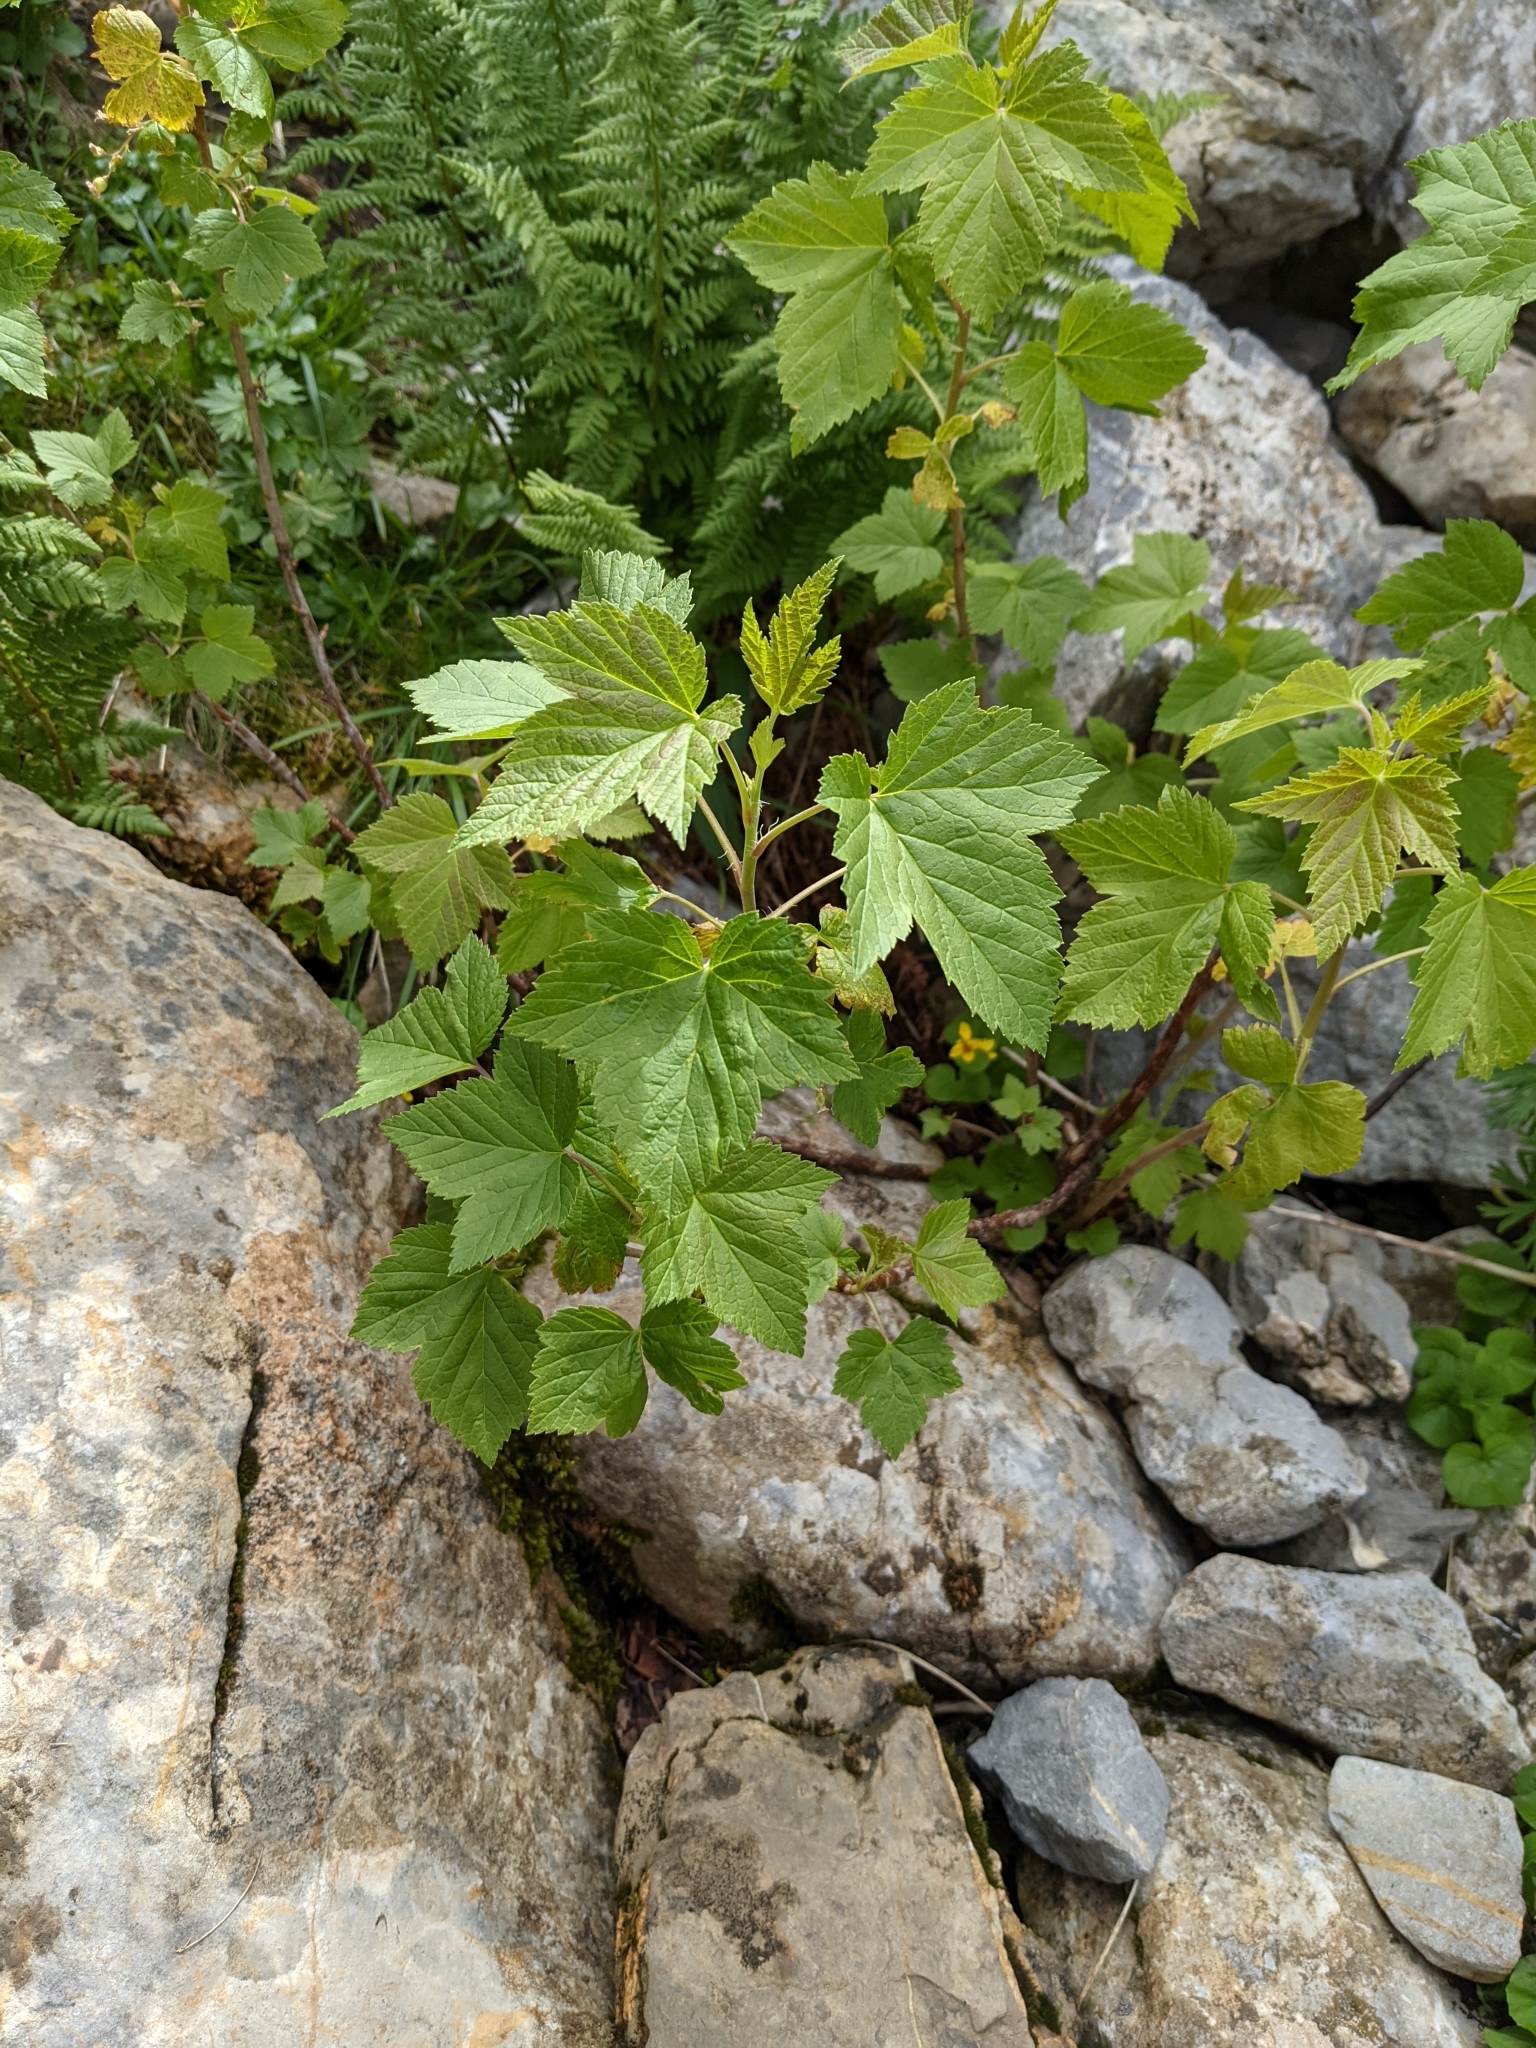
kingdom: Plantae
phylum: Tracheophyta
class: Magnoliopsida
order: Saxifragales
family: Grossulariaceae
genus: Ribes
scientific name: Ribes nigrum
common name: Black currant
